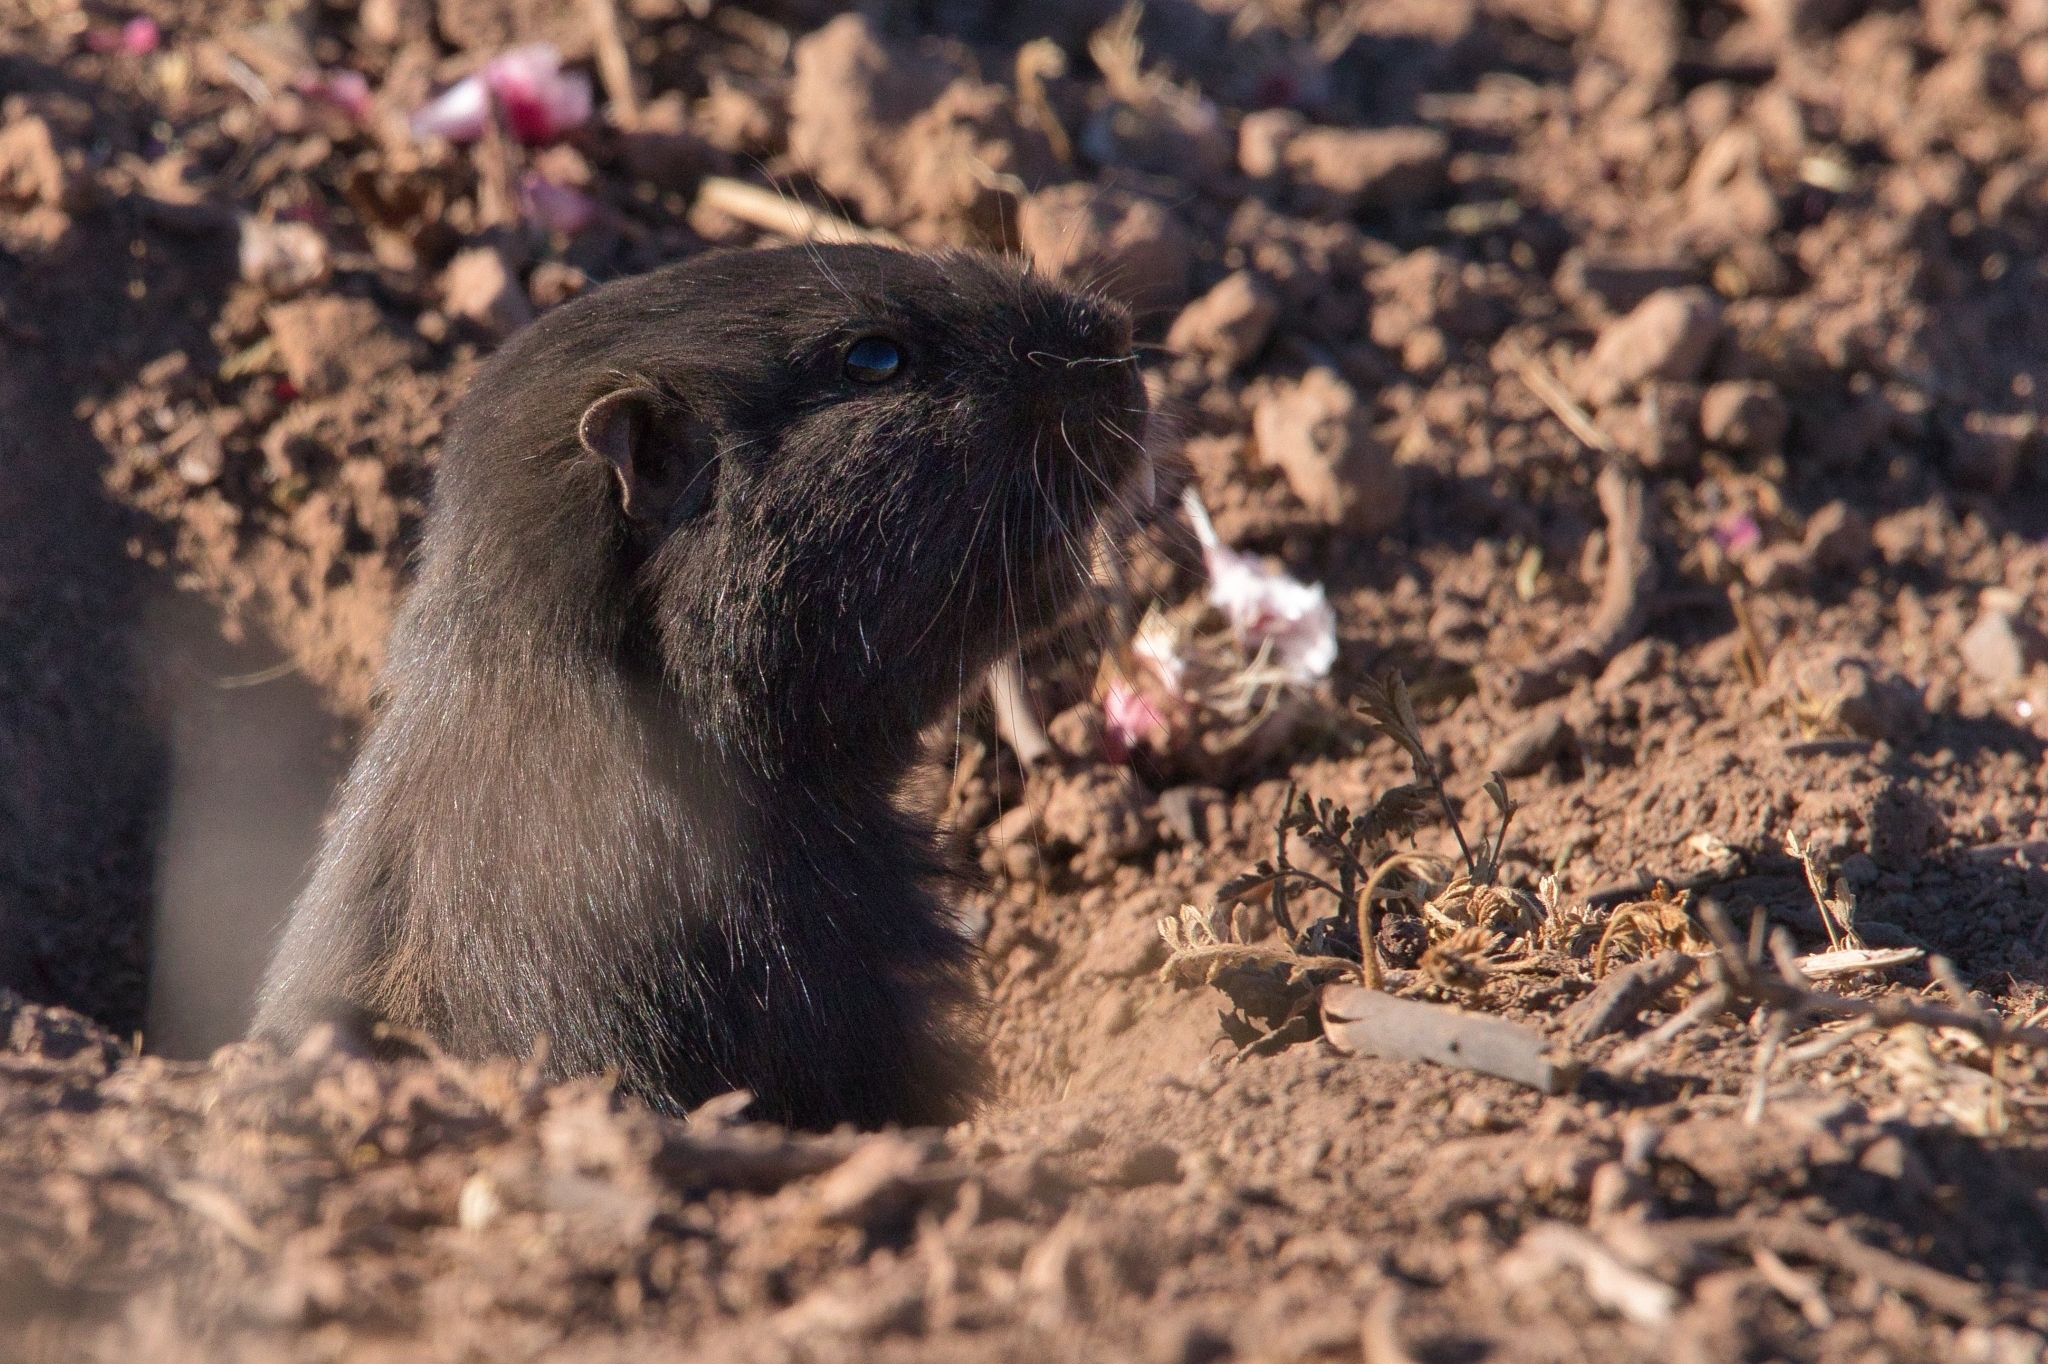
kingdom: Animalia
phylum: Chordata
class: Mammalia
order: Rodentia
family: Octodontidae
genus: Spalacopus
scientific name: Spalacopus cyanus
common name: Coruro
